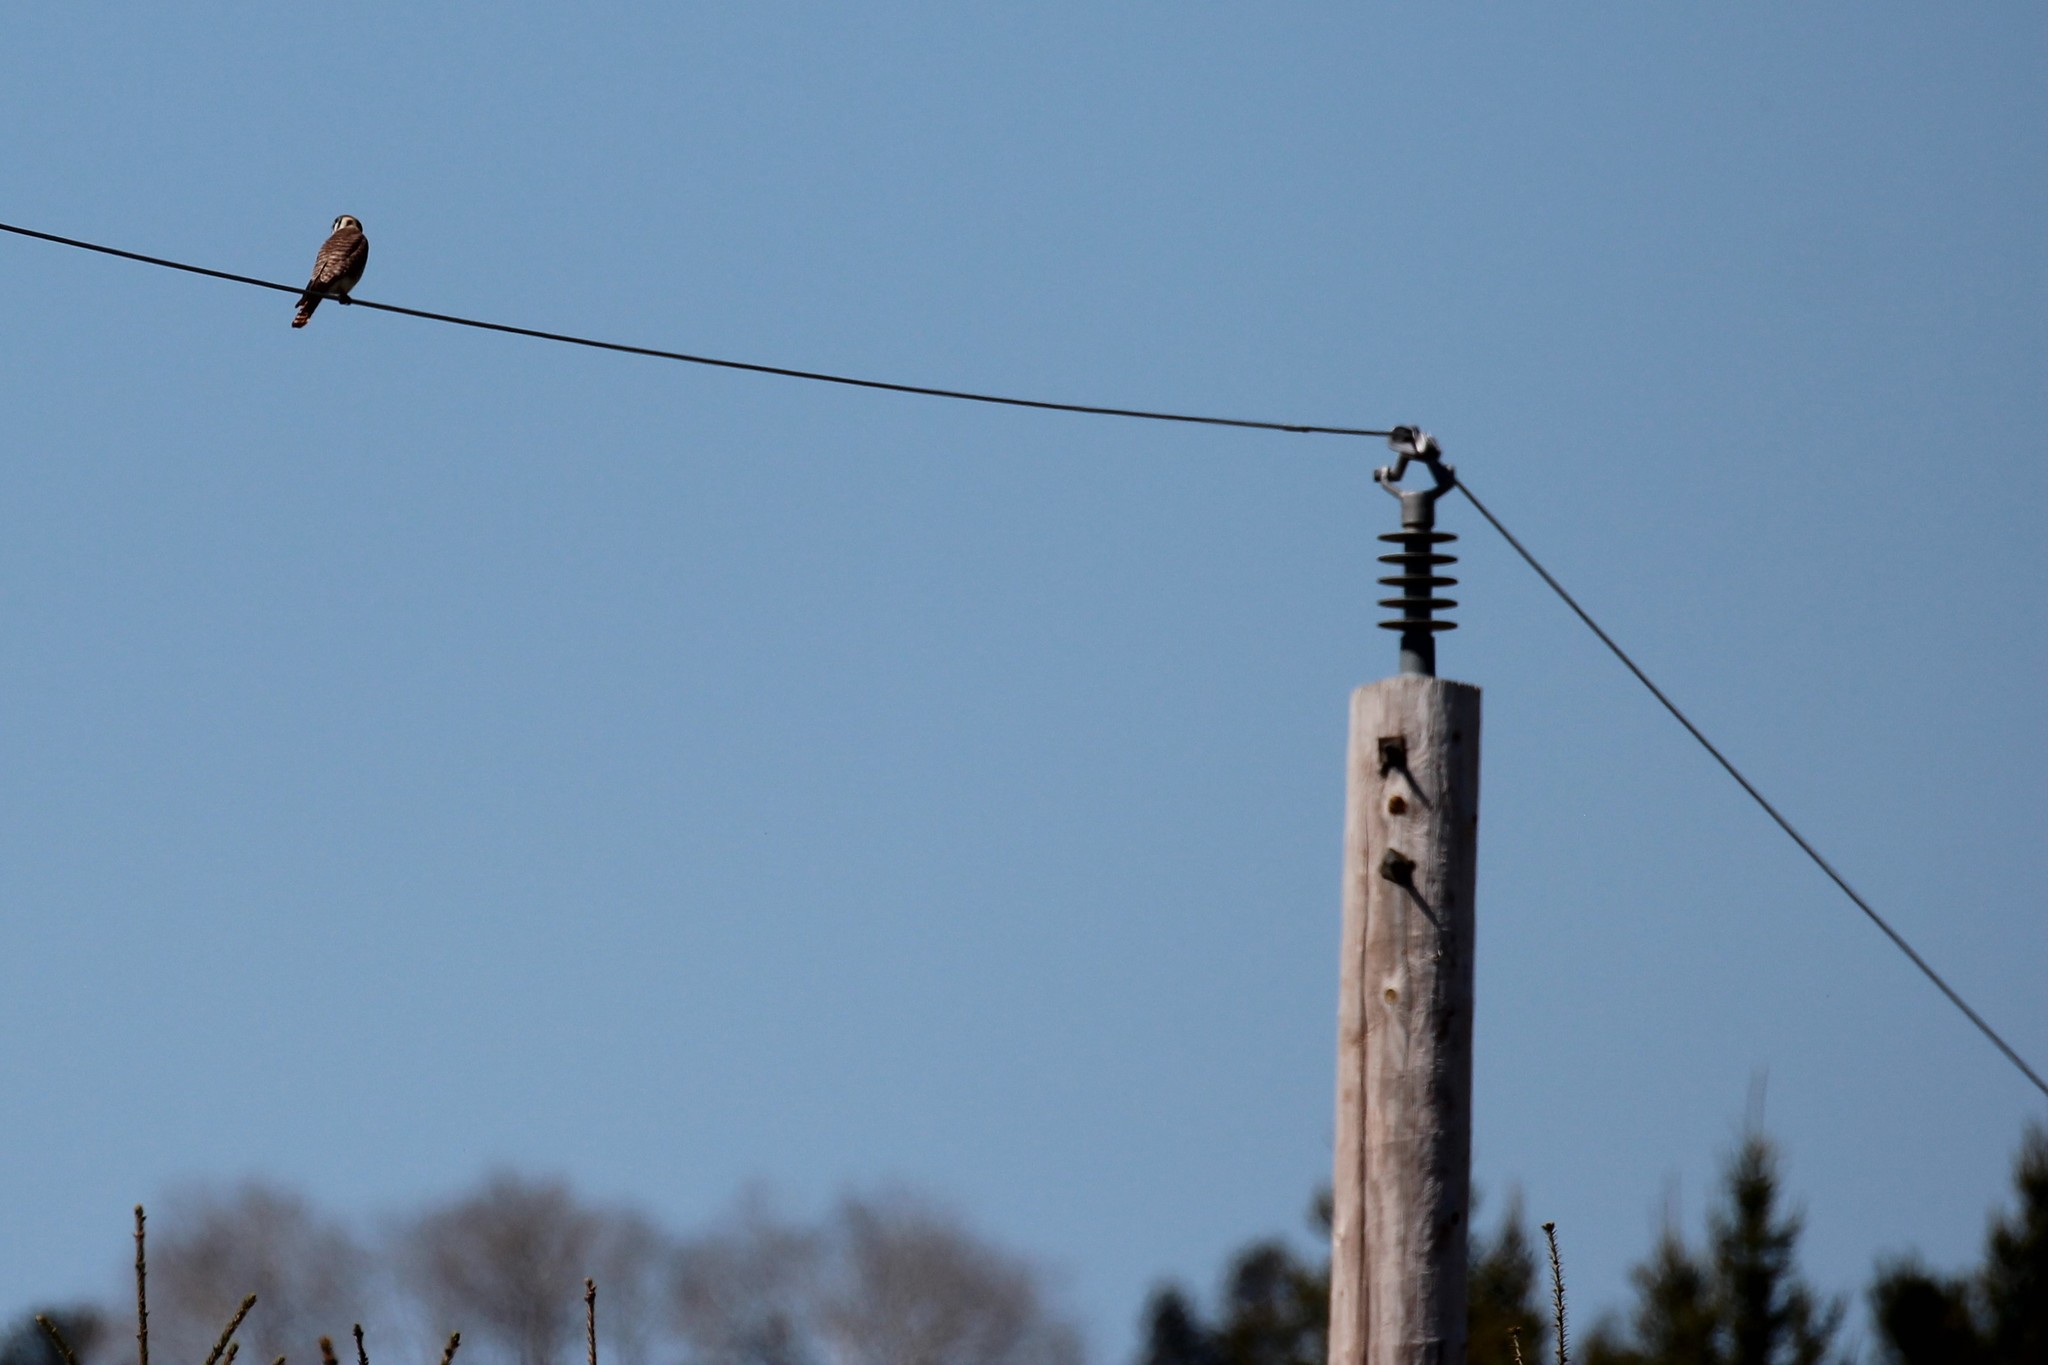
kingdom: Animalia
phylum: Chordata
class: Aves
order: Falconiformes
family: Falconidae
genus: Falco
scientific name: Falco sparverius
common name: American kestrel
